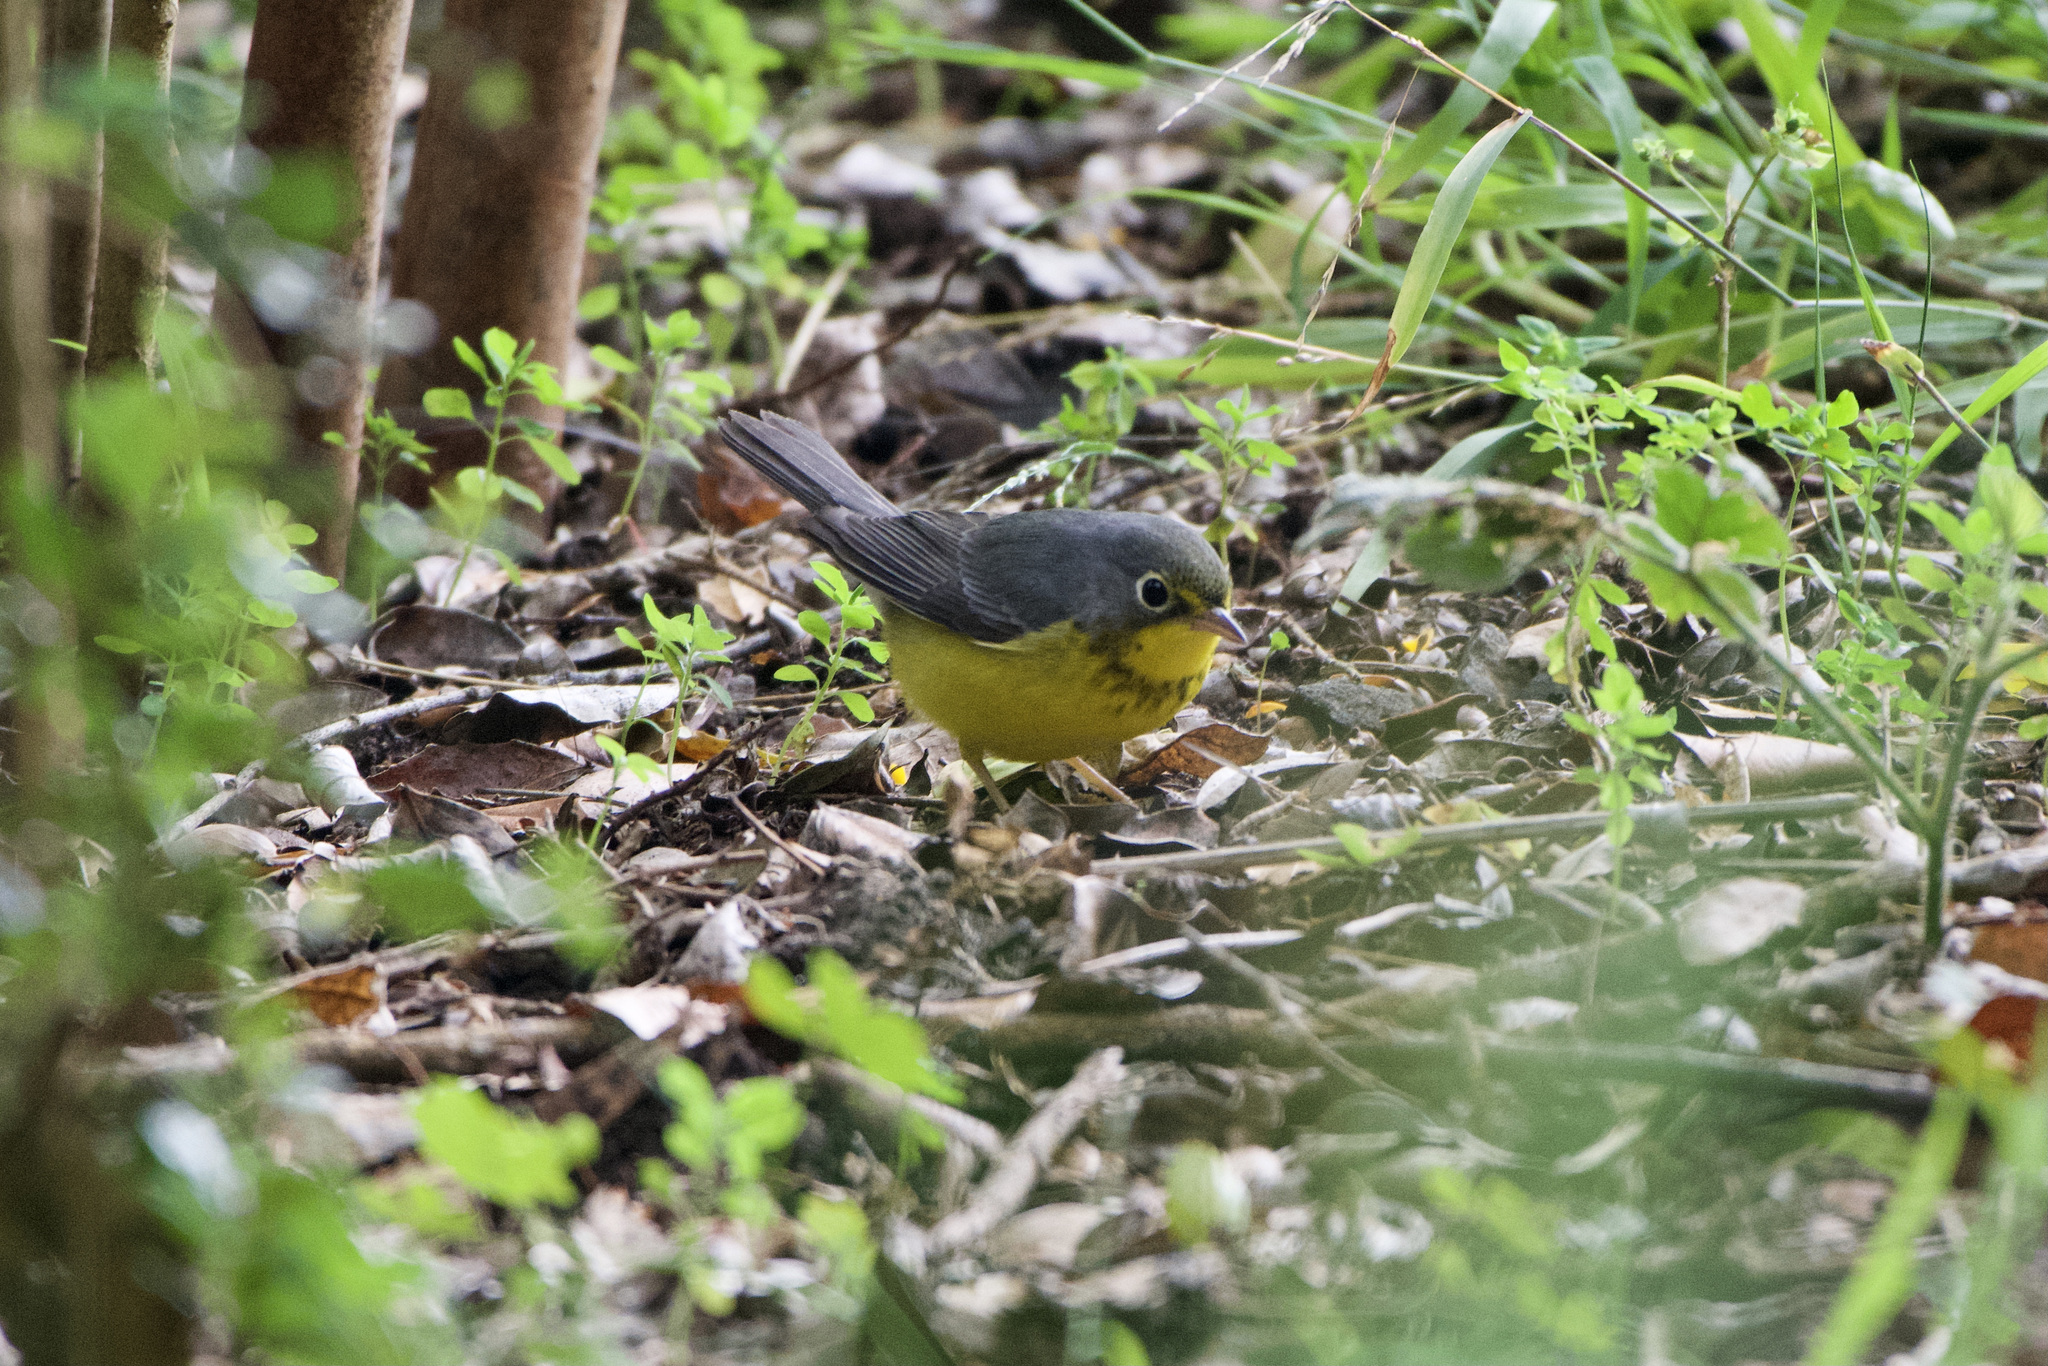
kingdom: Animalia
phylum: Chordata
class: Aves
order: Passeriformes
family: Parulidae
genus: Cardellina
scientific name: Cardellina canadensis
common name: Canada warbler
